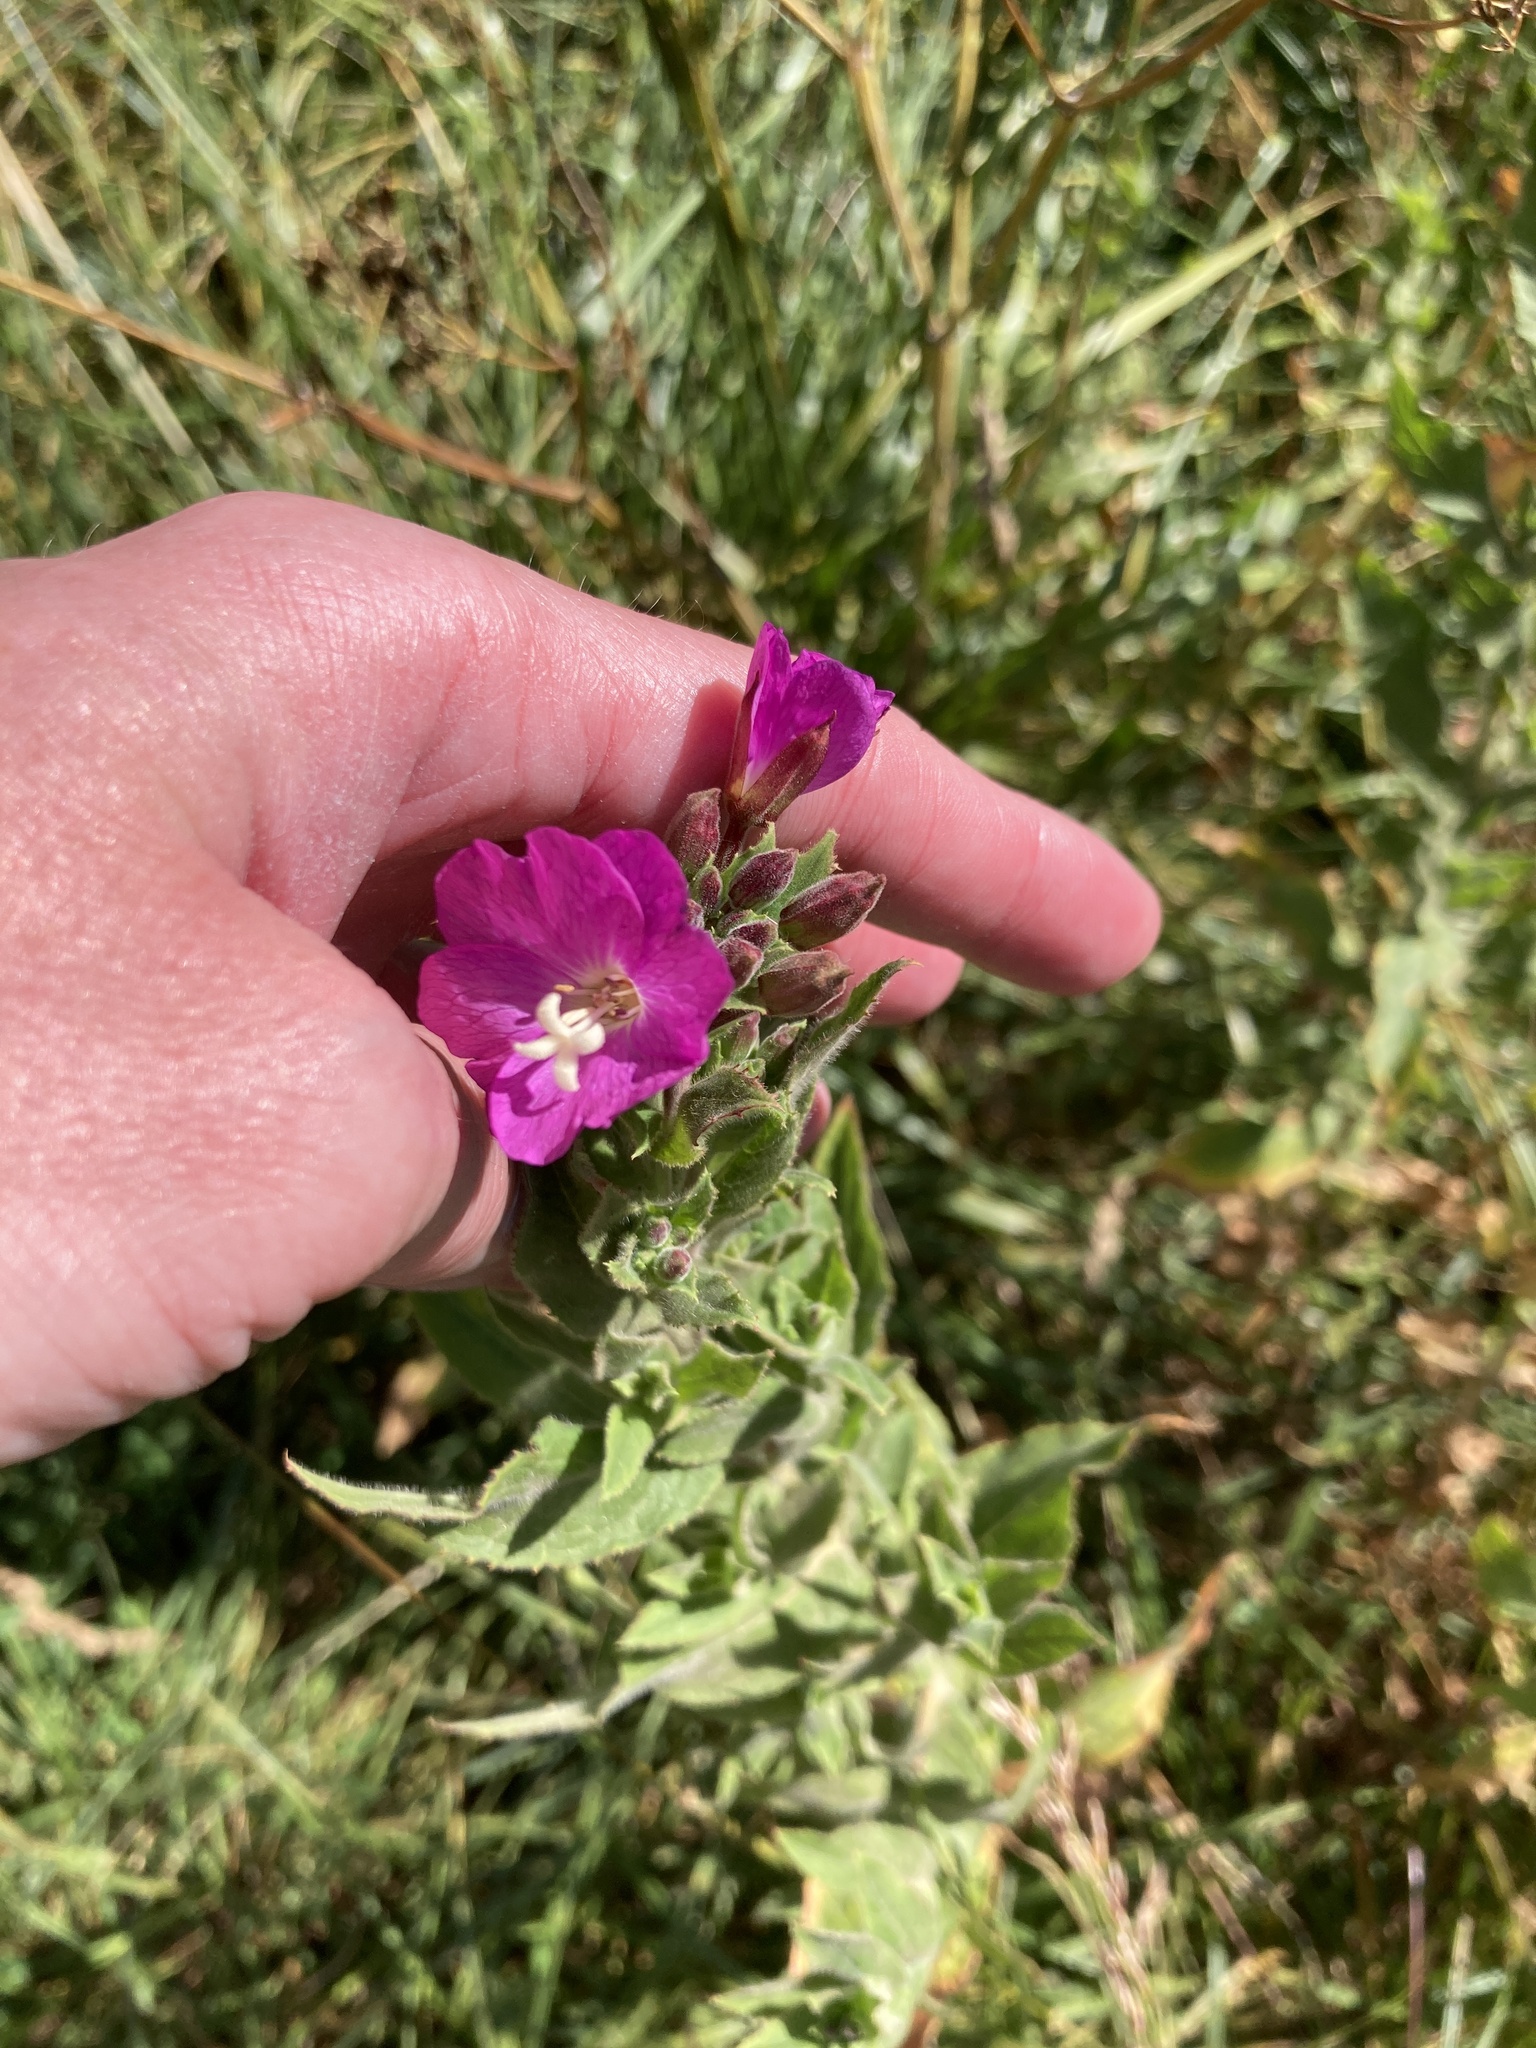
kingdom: Plantae
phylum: Tracheophyta
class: Magnoliopsida
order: Myrtales
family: Onagraceae
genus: Epilobium
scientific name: Epilobium hirsutum
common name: Great willowherb
